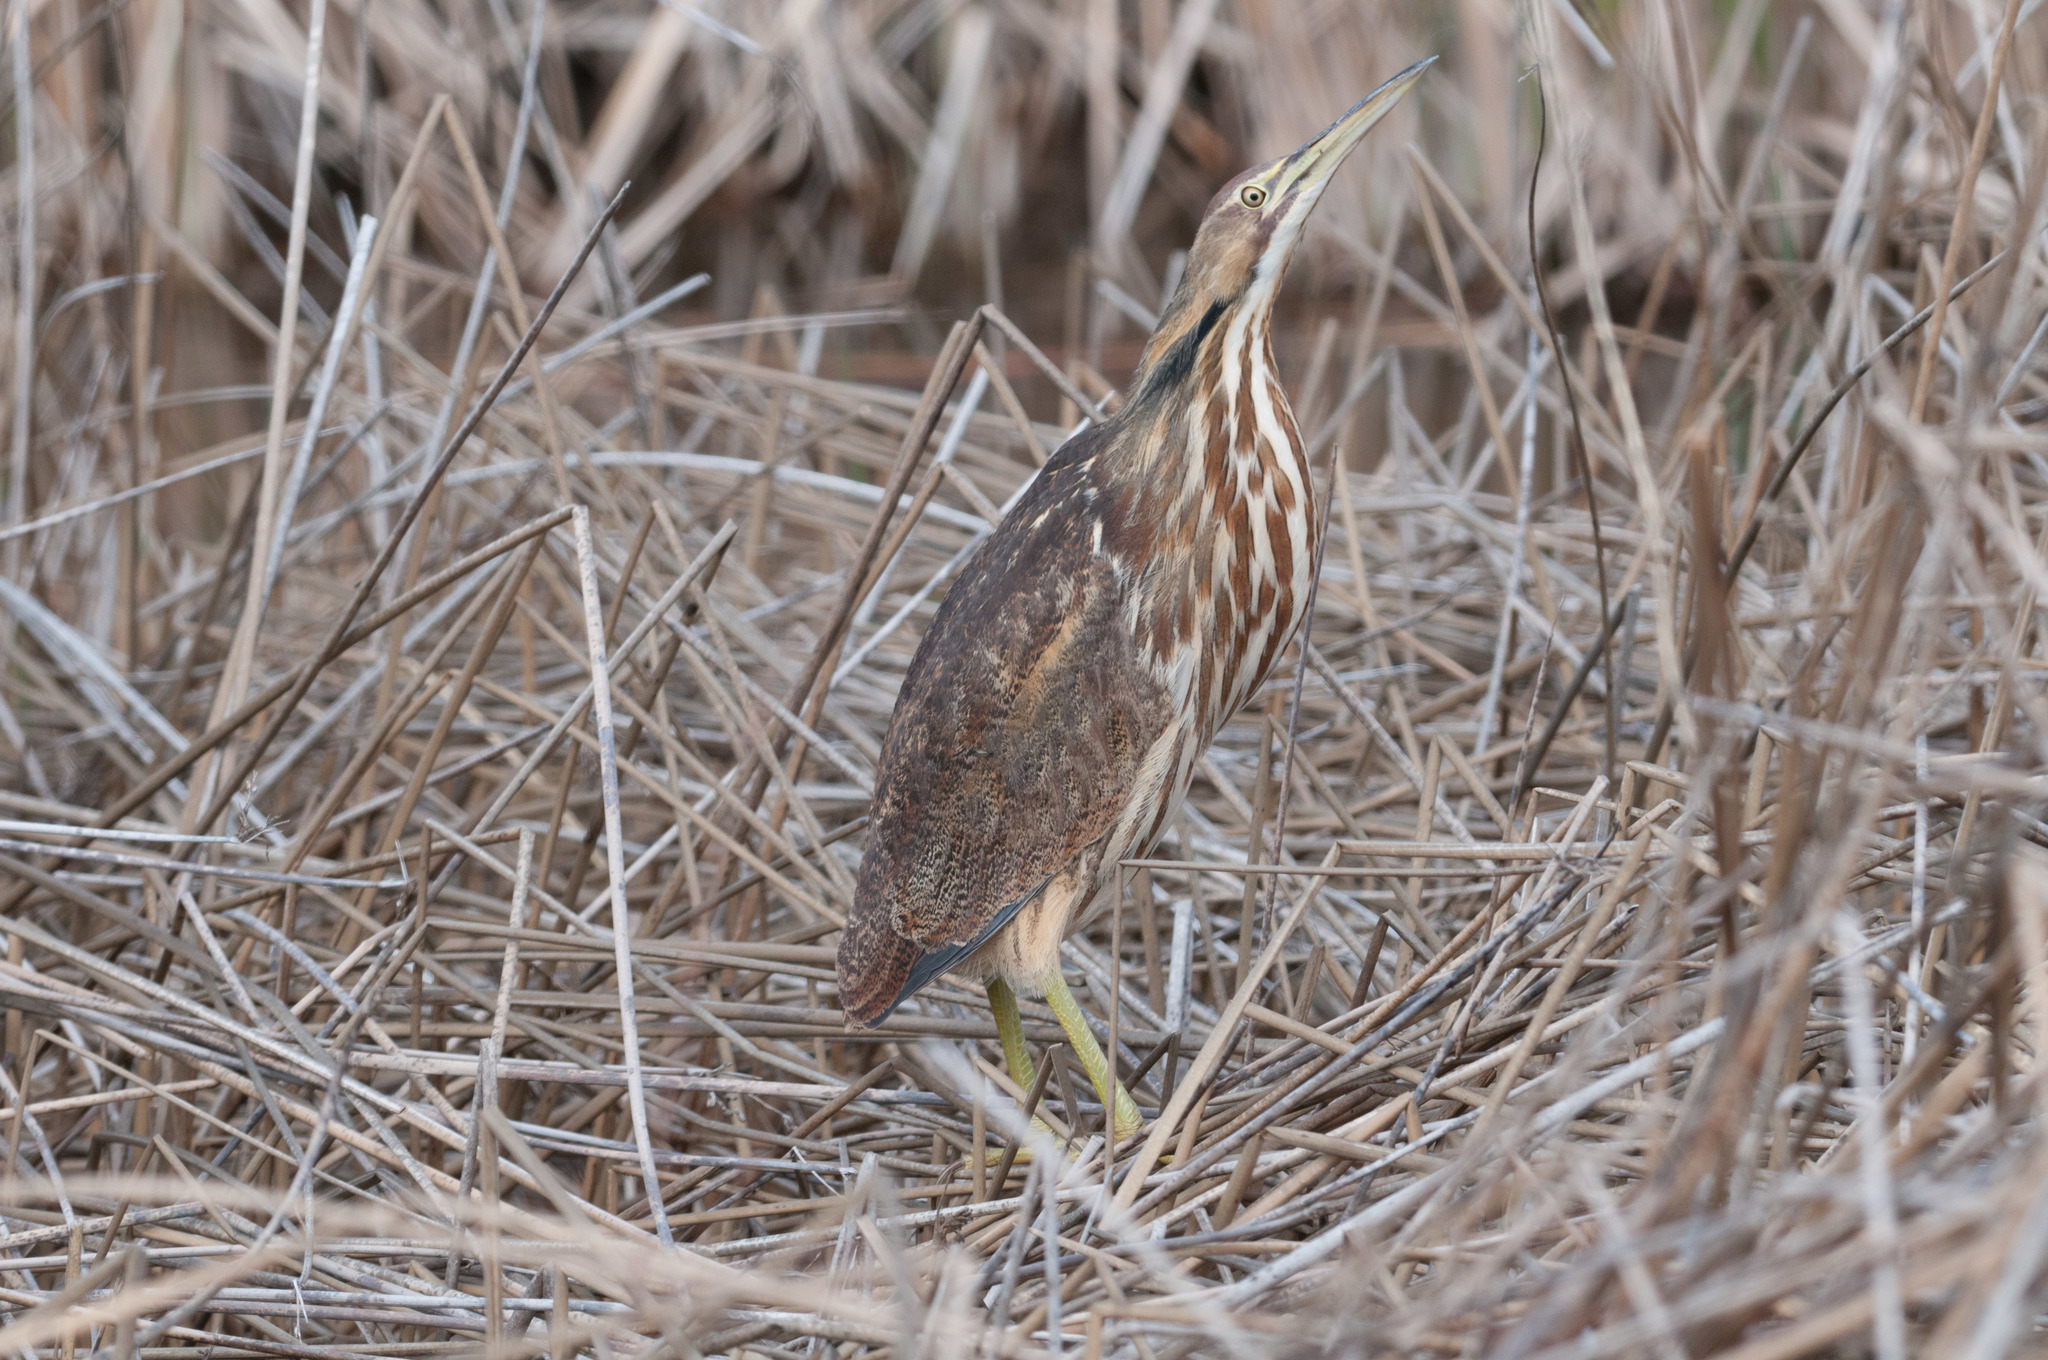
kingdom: Animalia
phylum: Chordata
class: Aves
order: Pelecaniformes
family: Ardeidae
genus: Botaurus
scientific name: Botaurus lentiginosus
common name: American bittern
